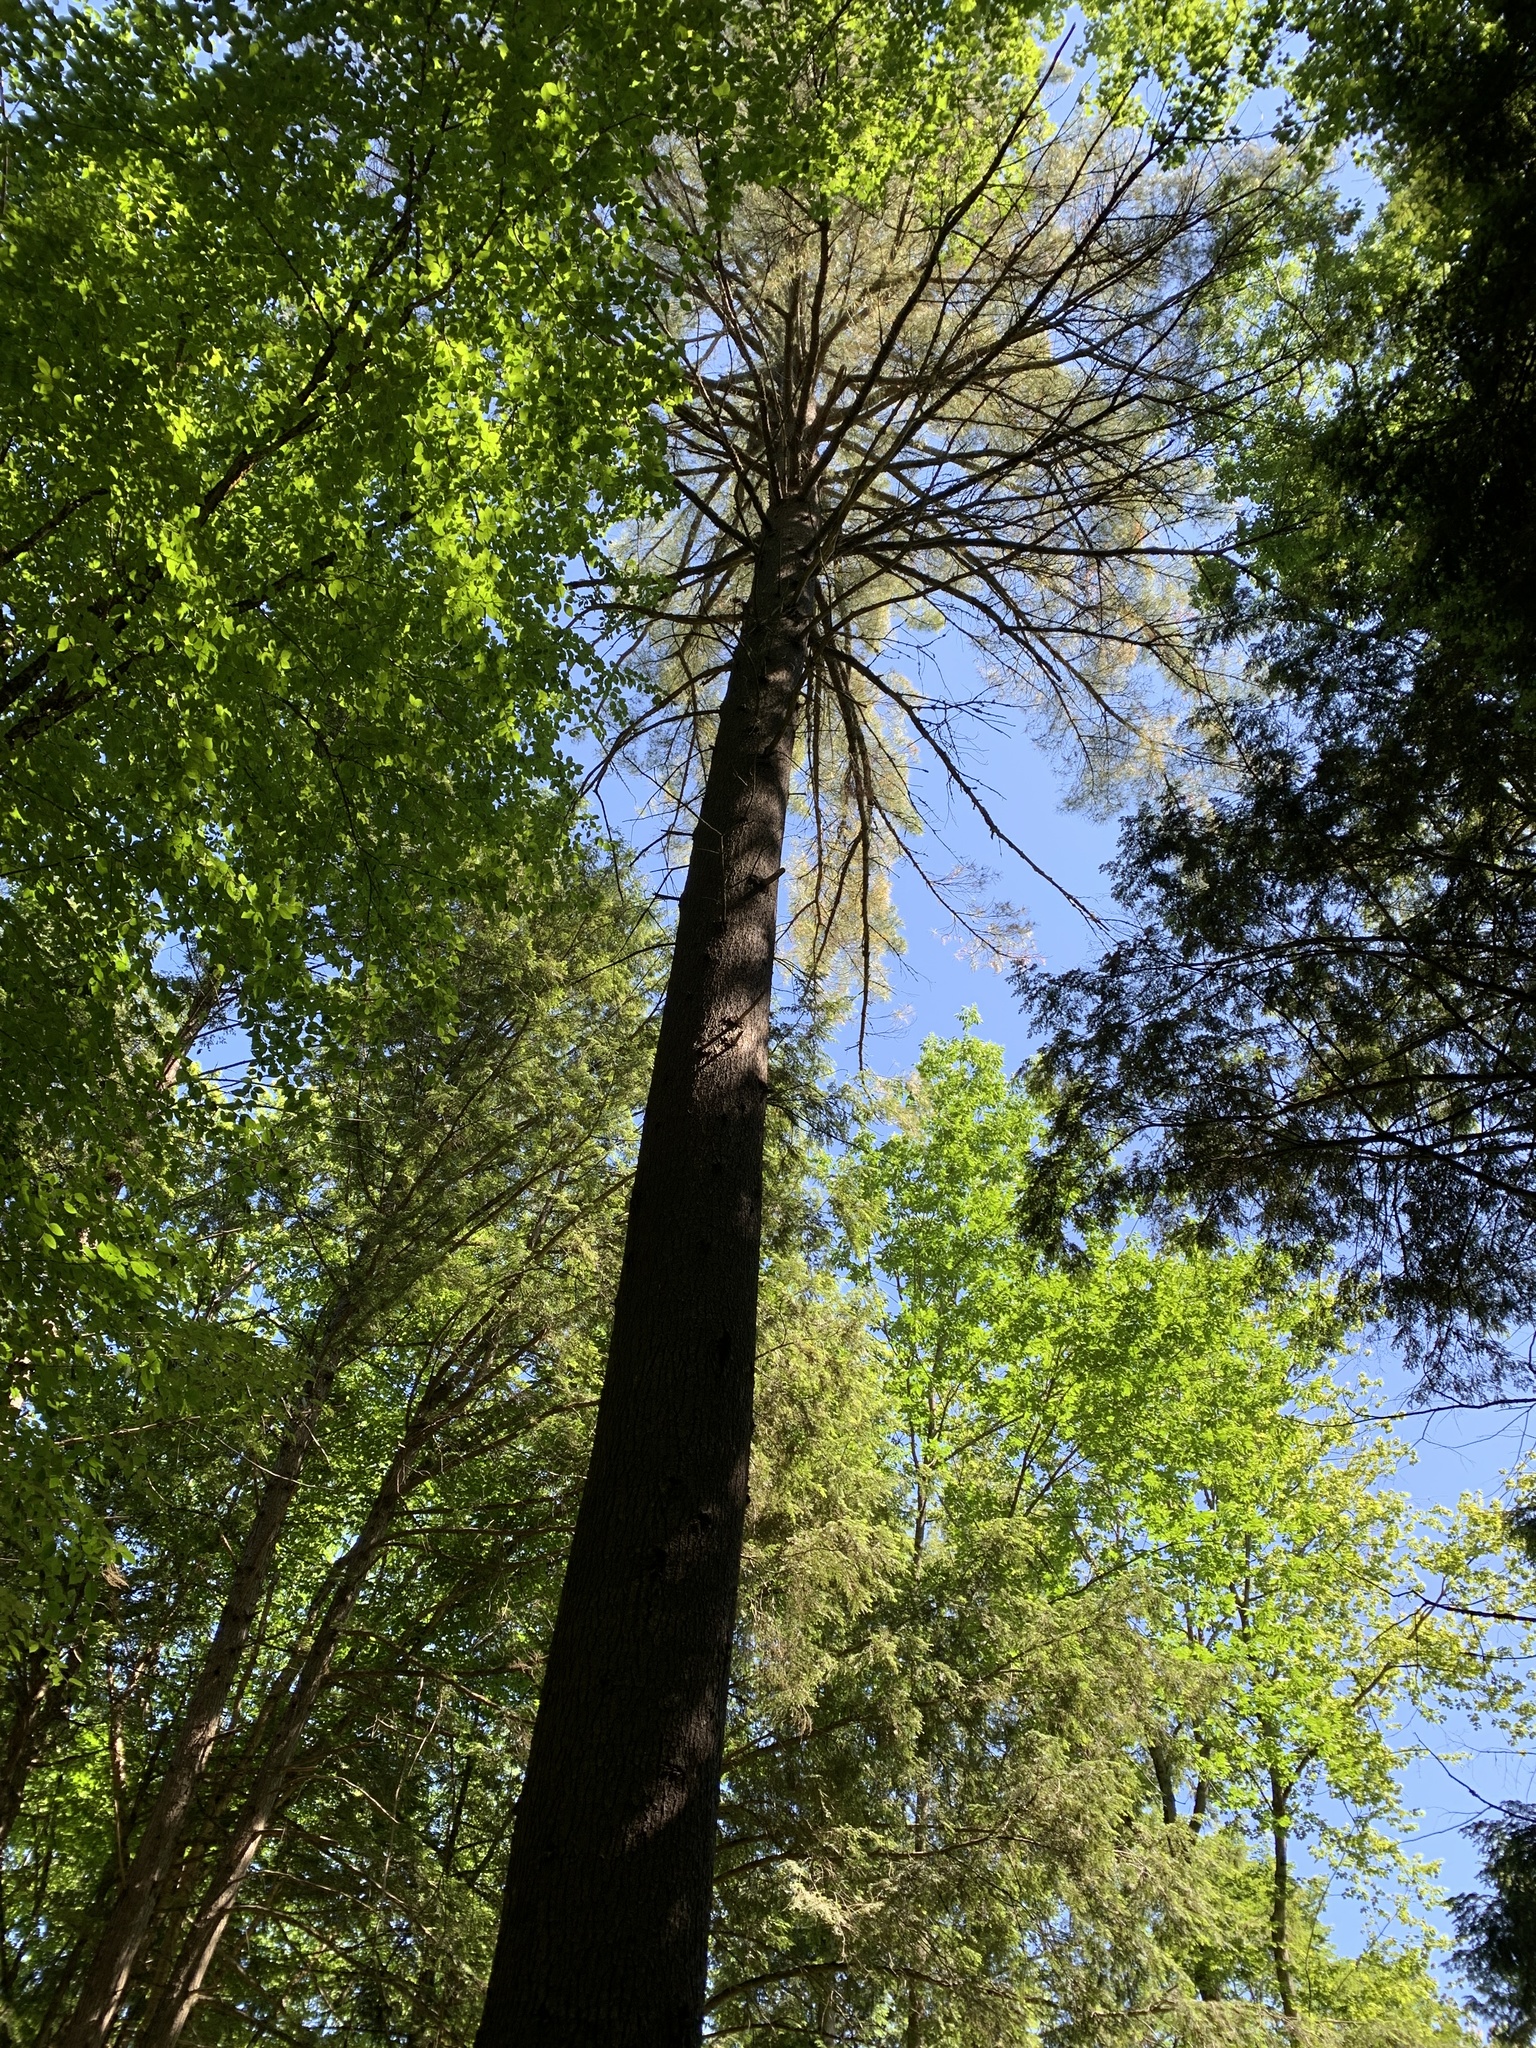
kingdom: Plantae
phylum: Tracheophyta
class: Pinopsida
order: Pinales
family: Pinaceae
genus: Pinus
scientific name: Pinus strobus
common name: Weymouth pine
